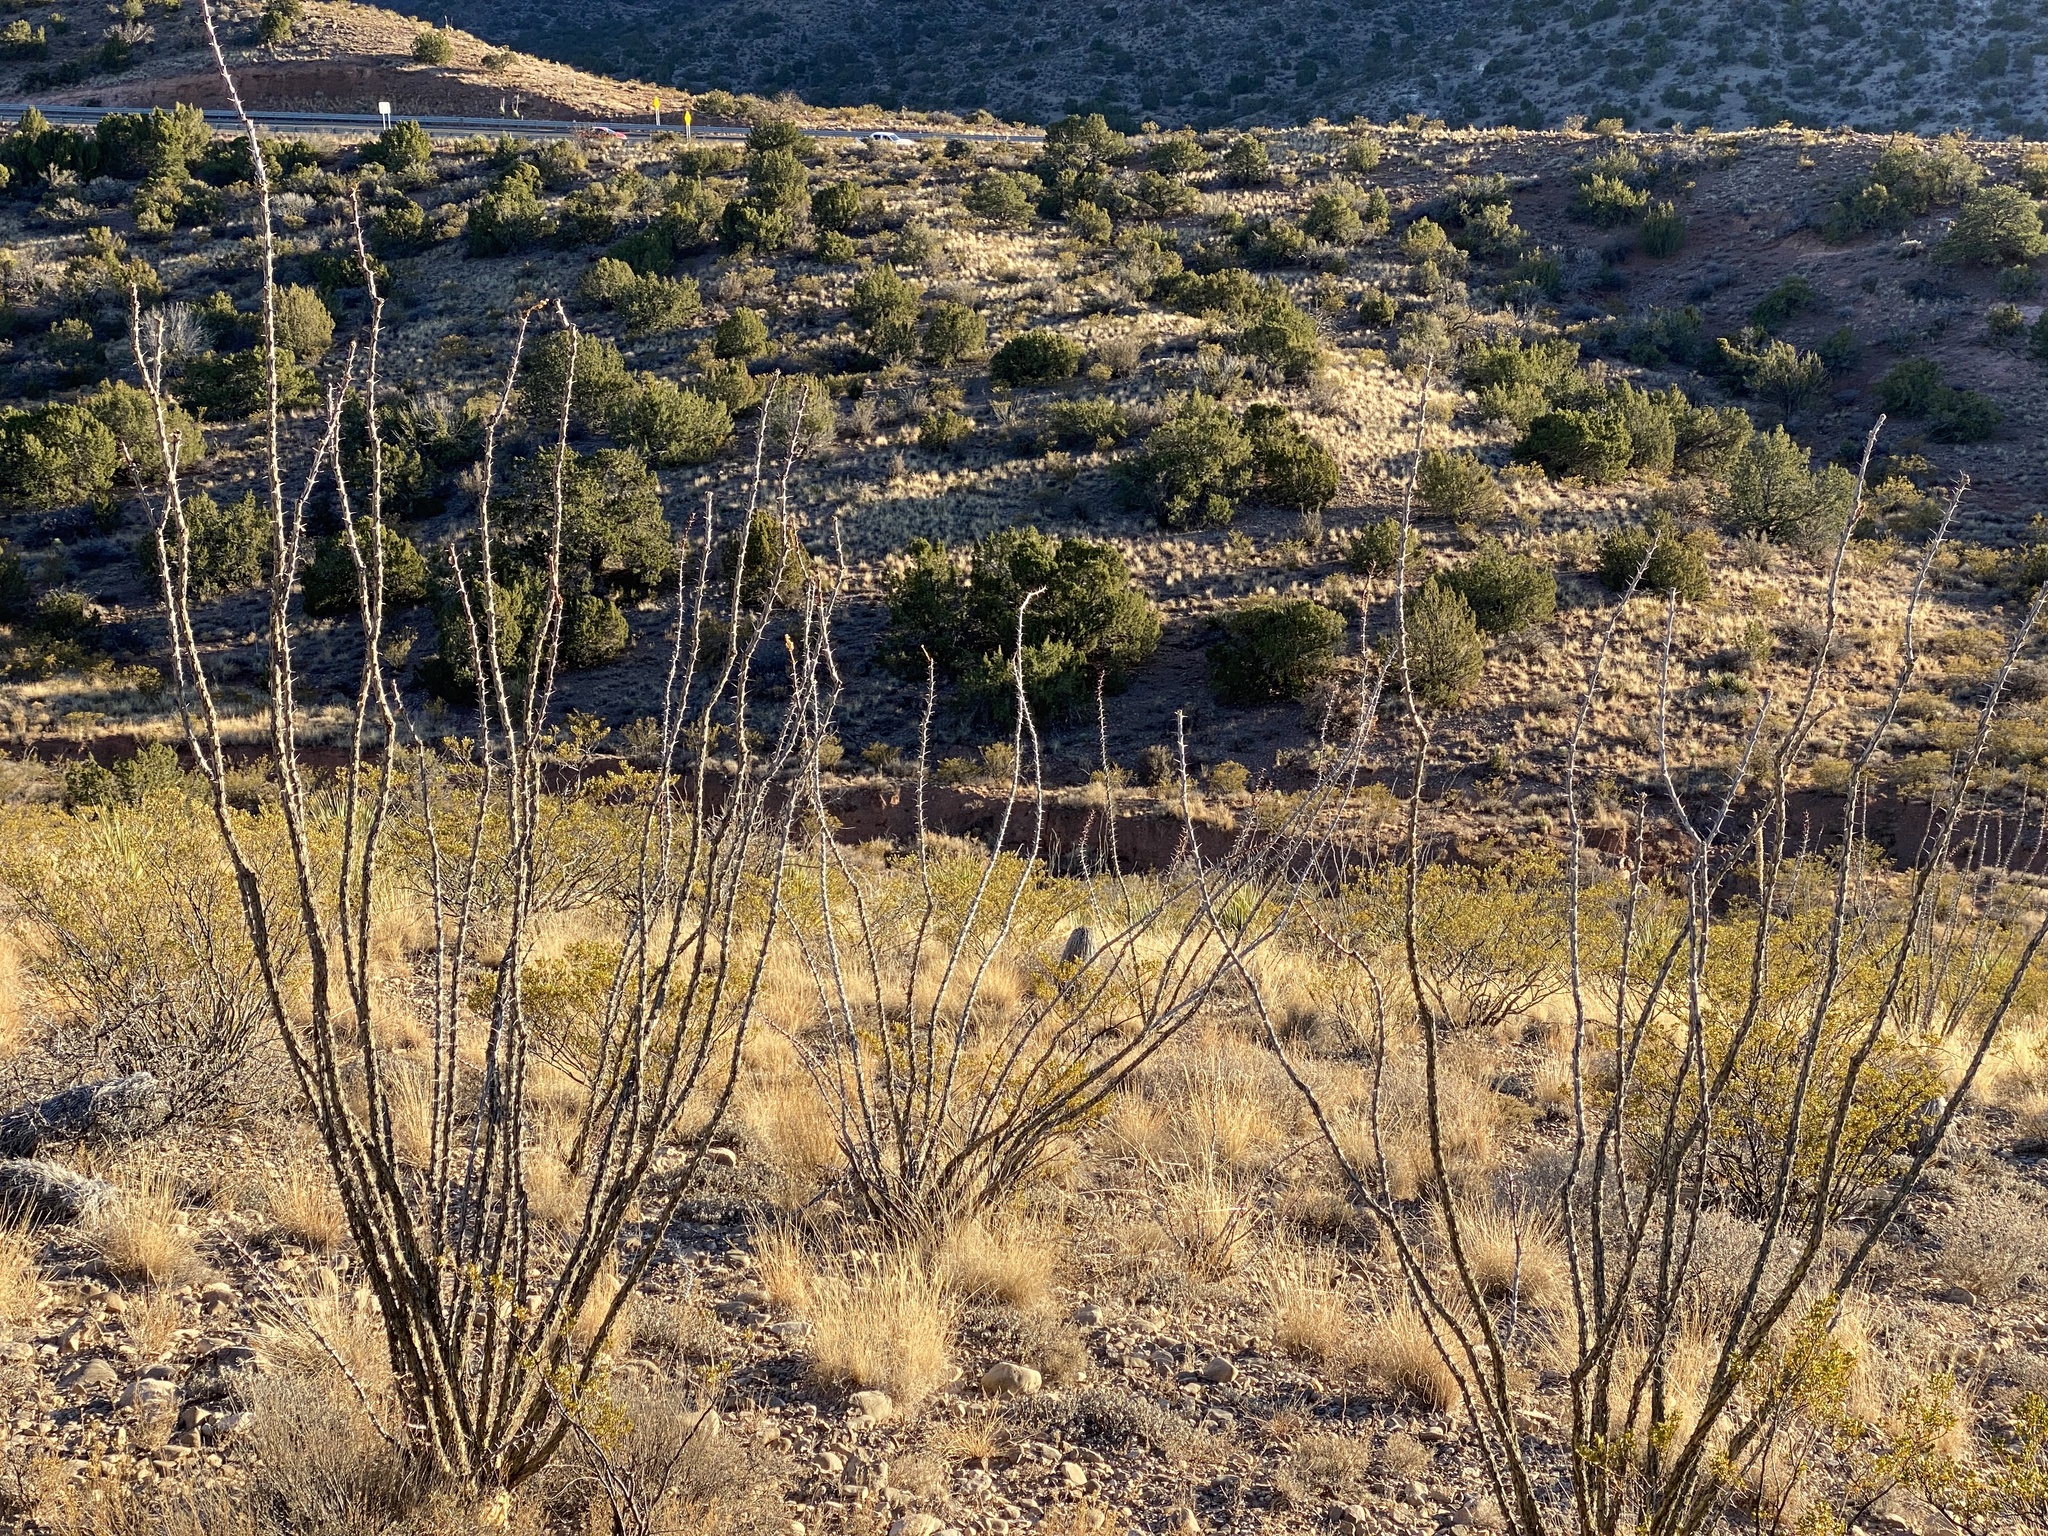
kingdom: Plantae
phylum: Tracheophyta
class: Magnoliopsida
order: Ericales
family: Fouquieriaceae
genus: Fouquieria
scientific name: Fouquieria splendens
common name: Vine-cactus
